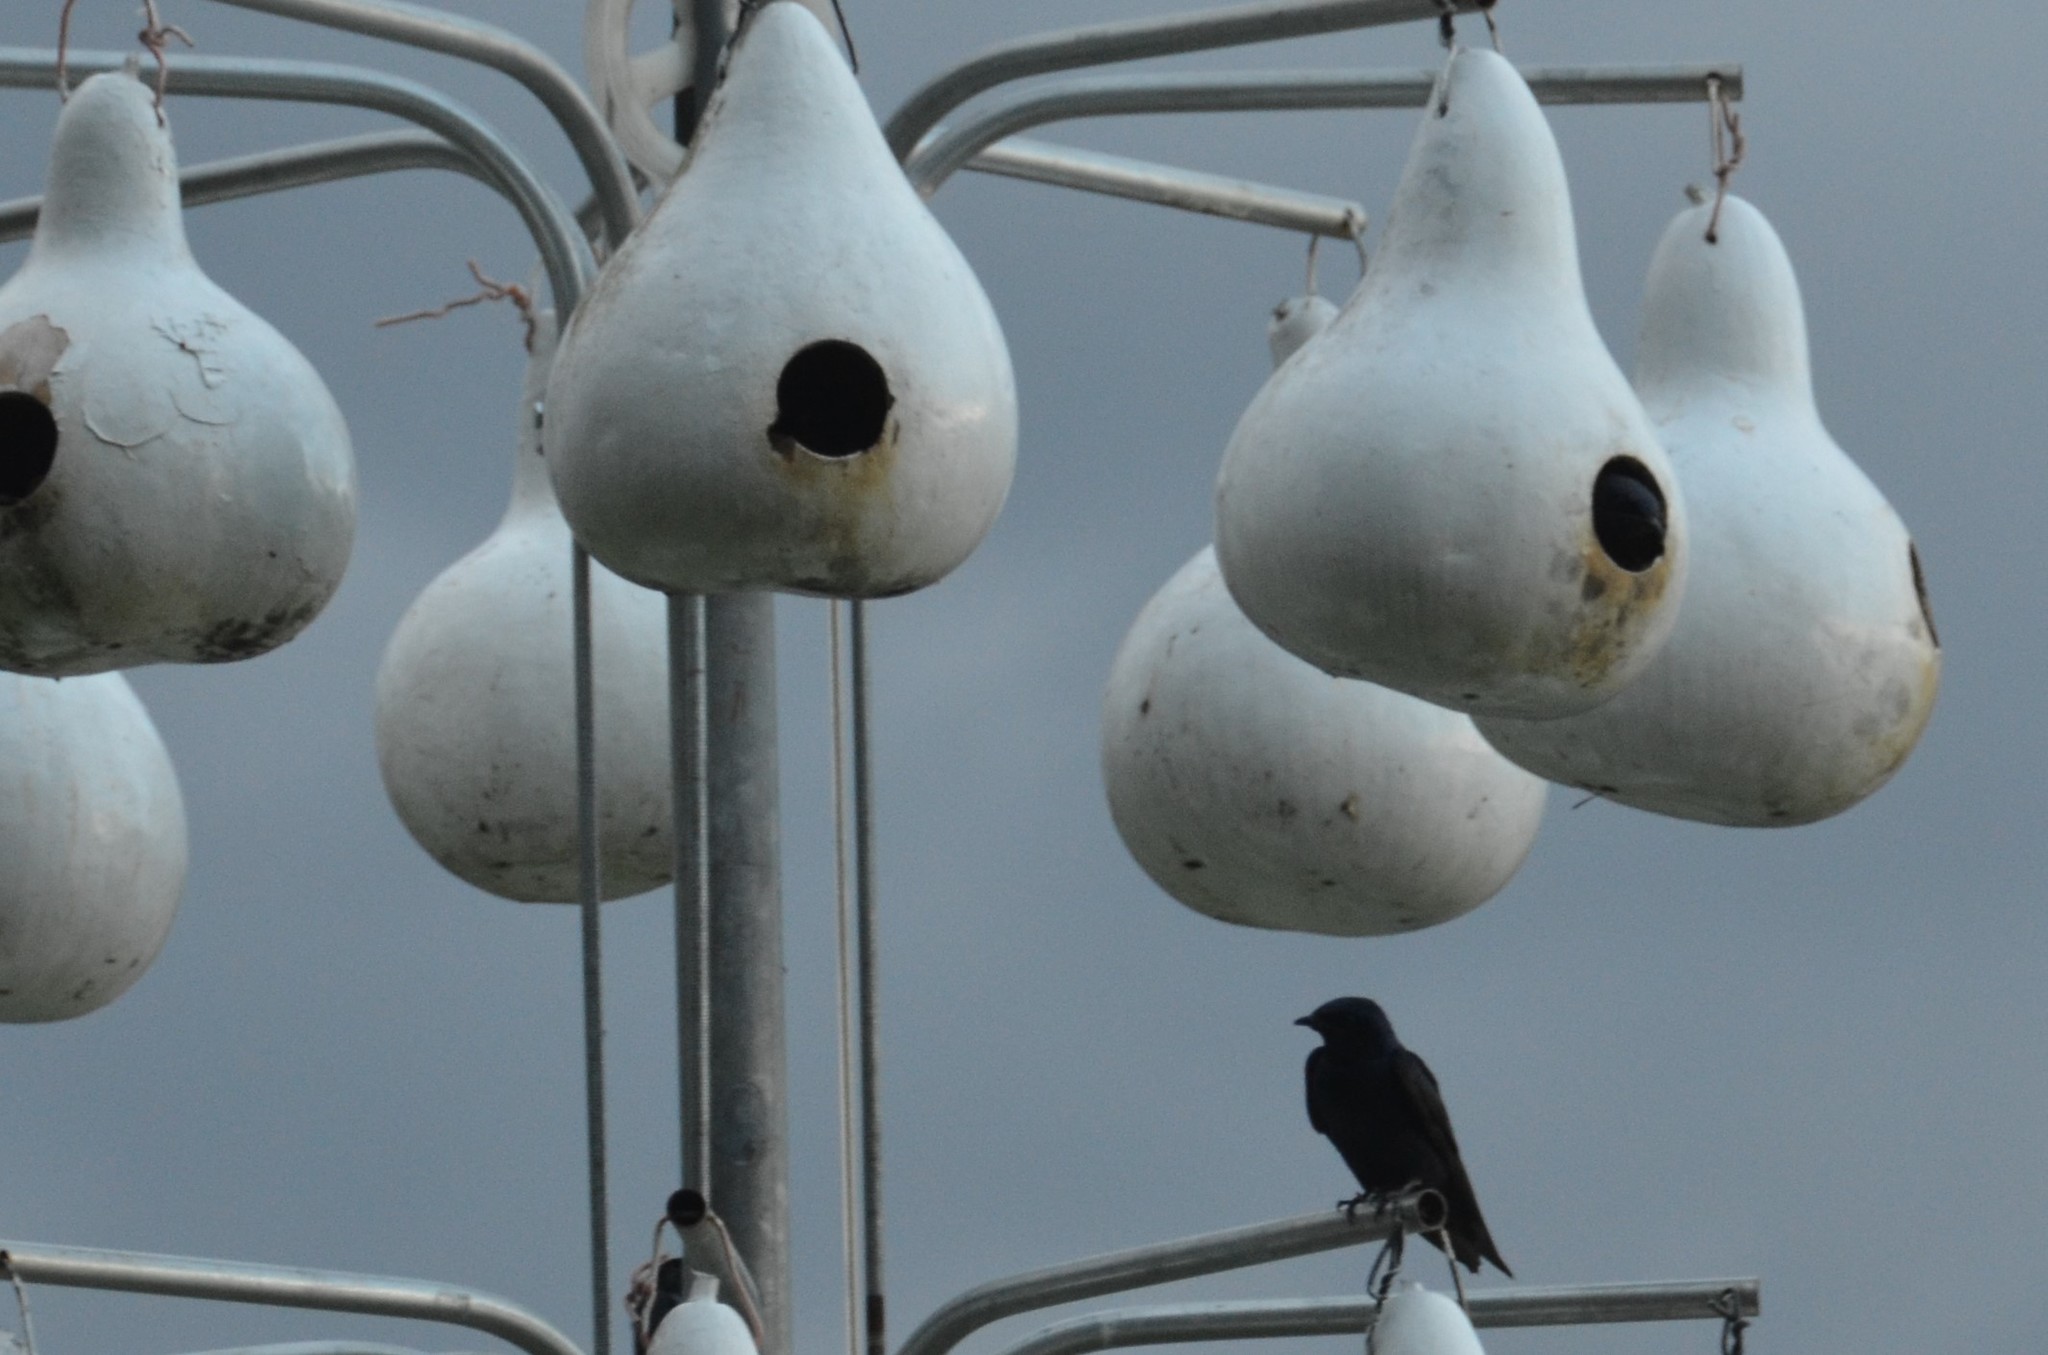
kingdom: Animalia
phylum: Chordata
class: Aves
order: Passeriformes
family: Hirundinidae
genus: Progne
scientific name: Progne subis
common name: Purple martin
